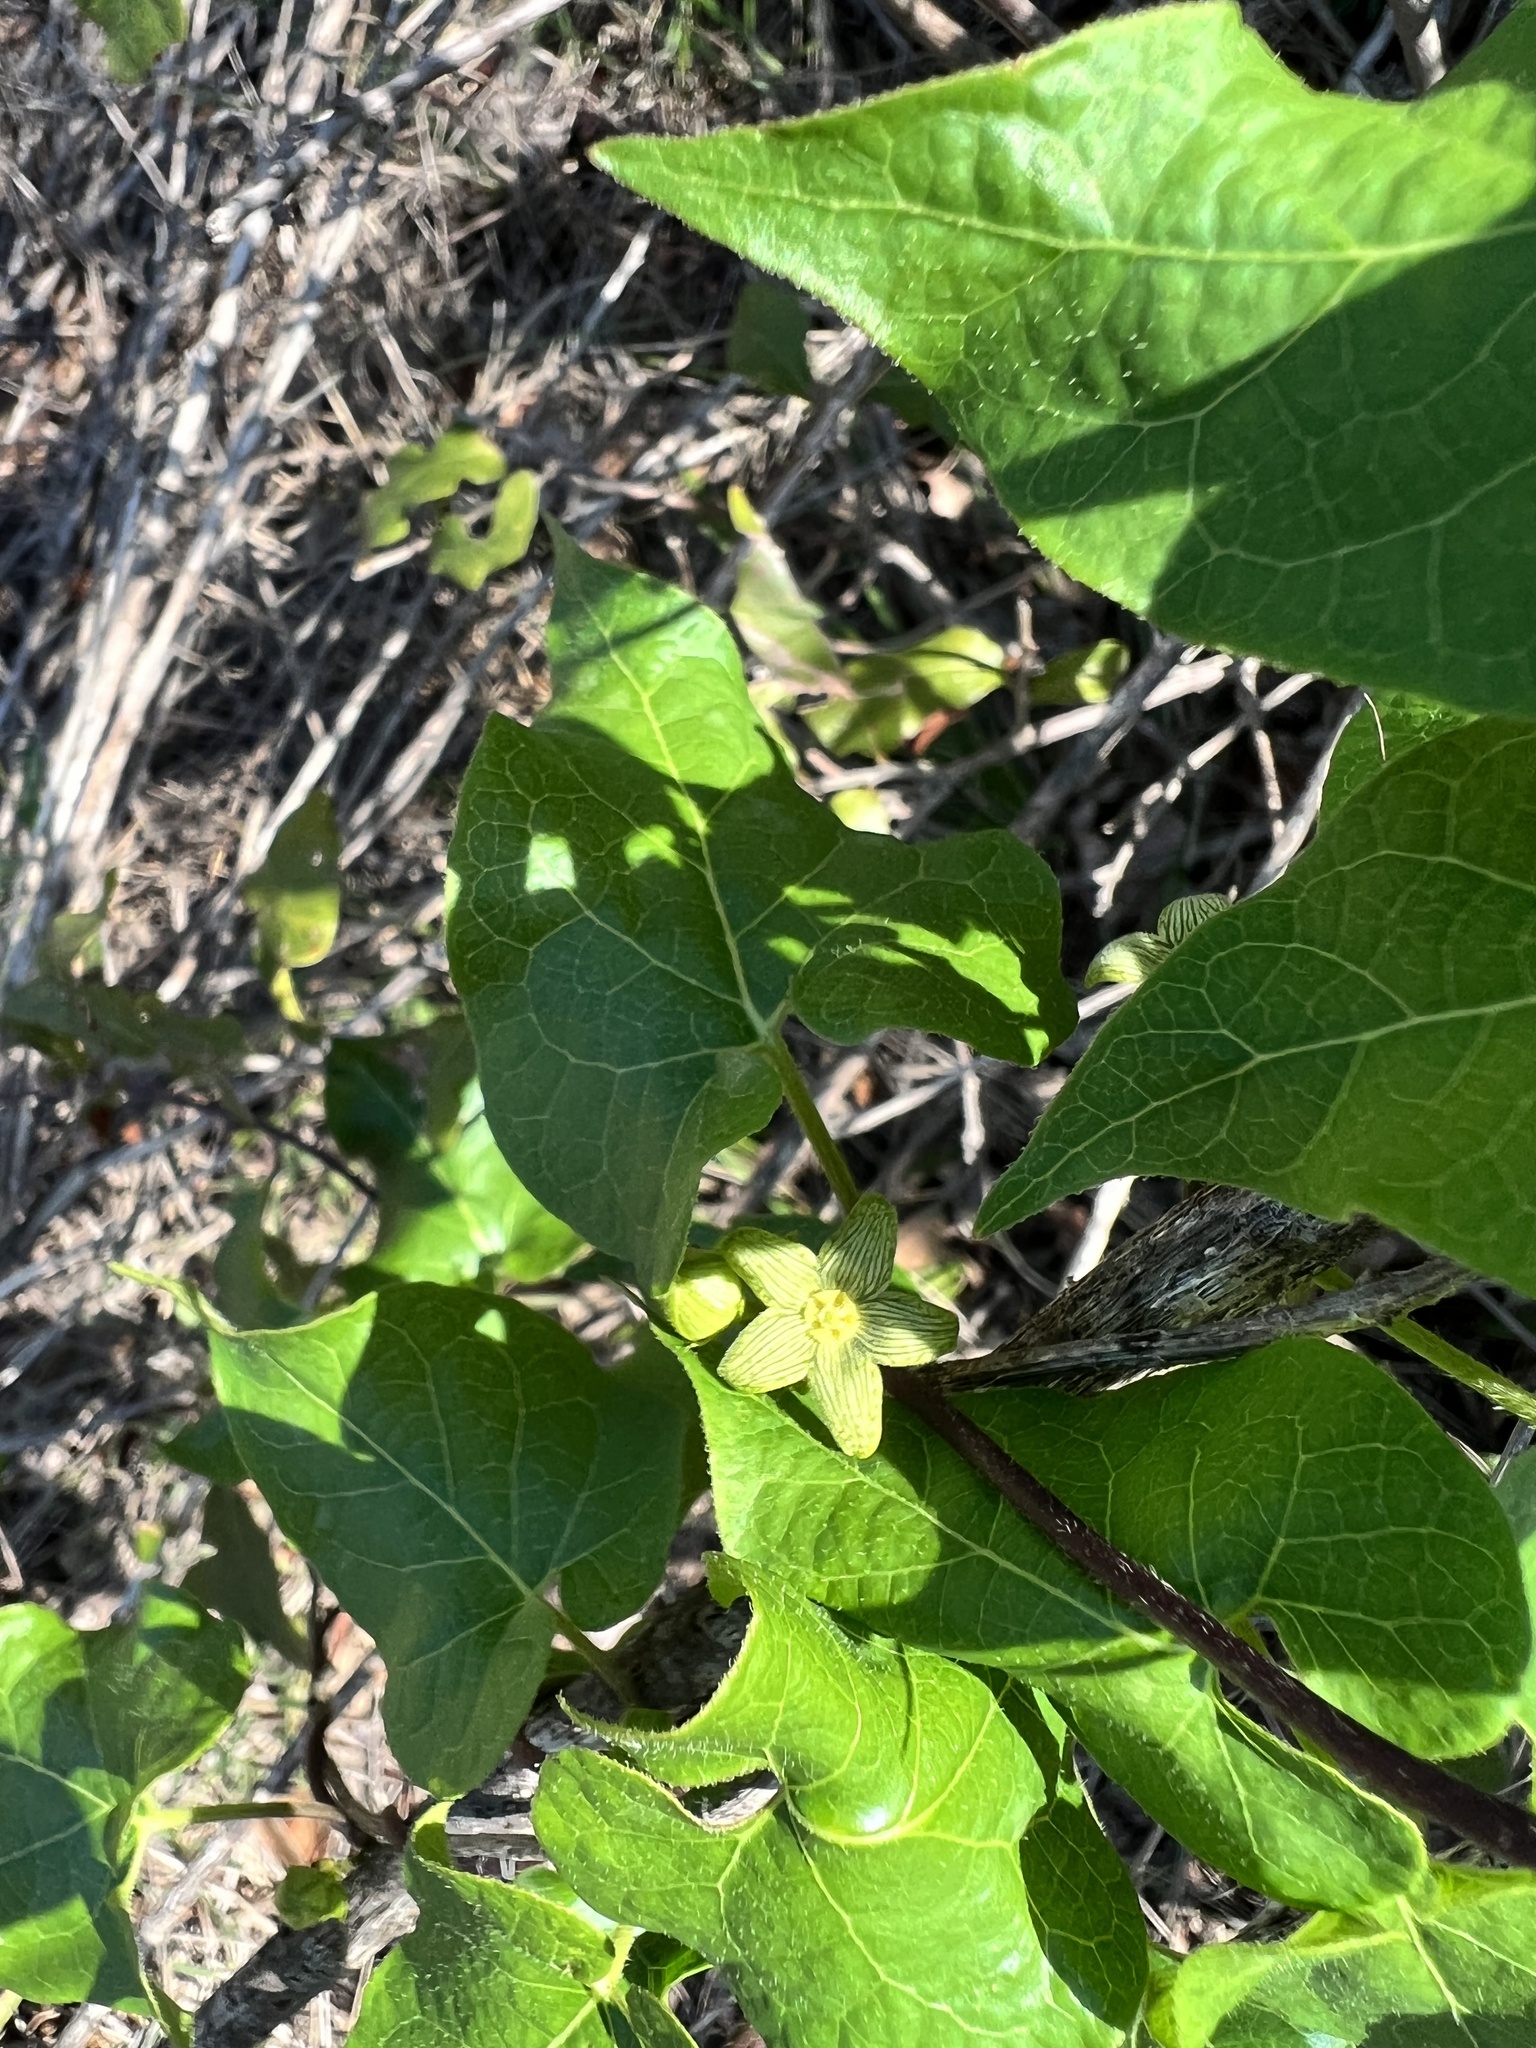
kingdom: Plantae
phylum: Tracheophyta
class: Magnoliopsida
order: Gentianales
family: Apocynaceae
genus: Matelea
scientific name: Matelea edwardsensis
